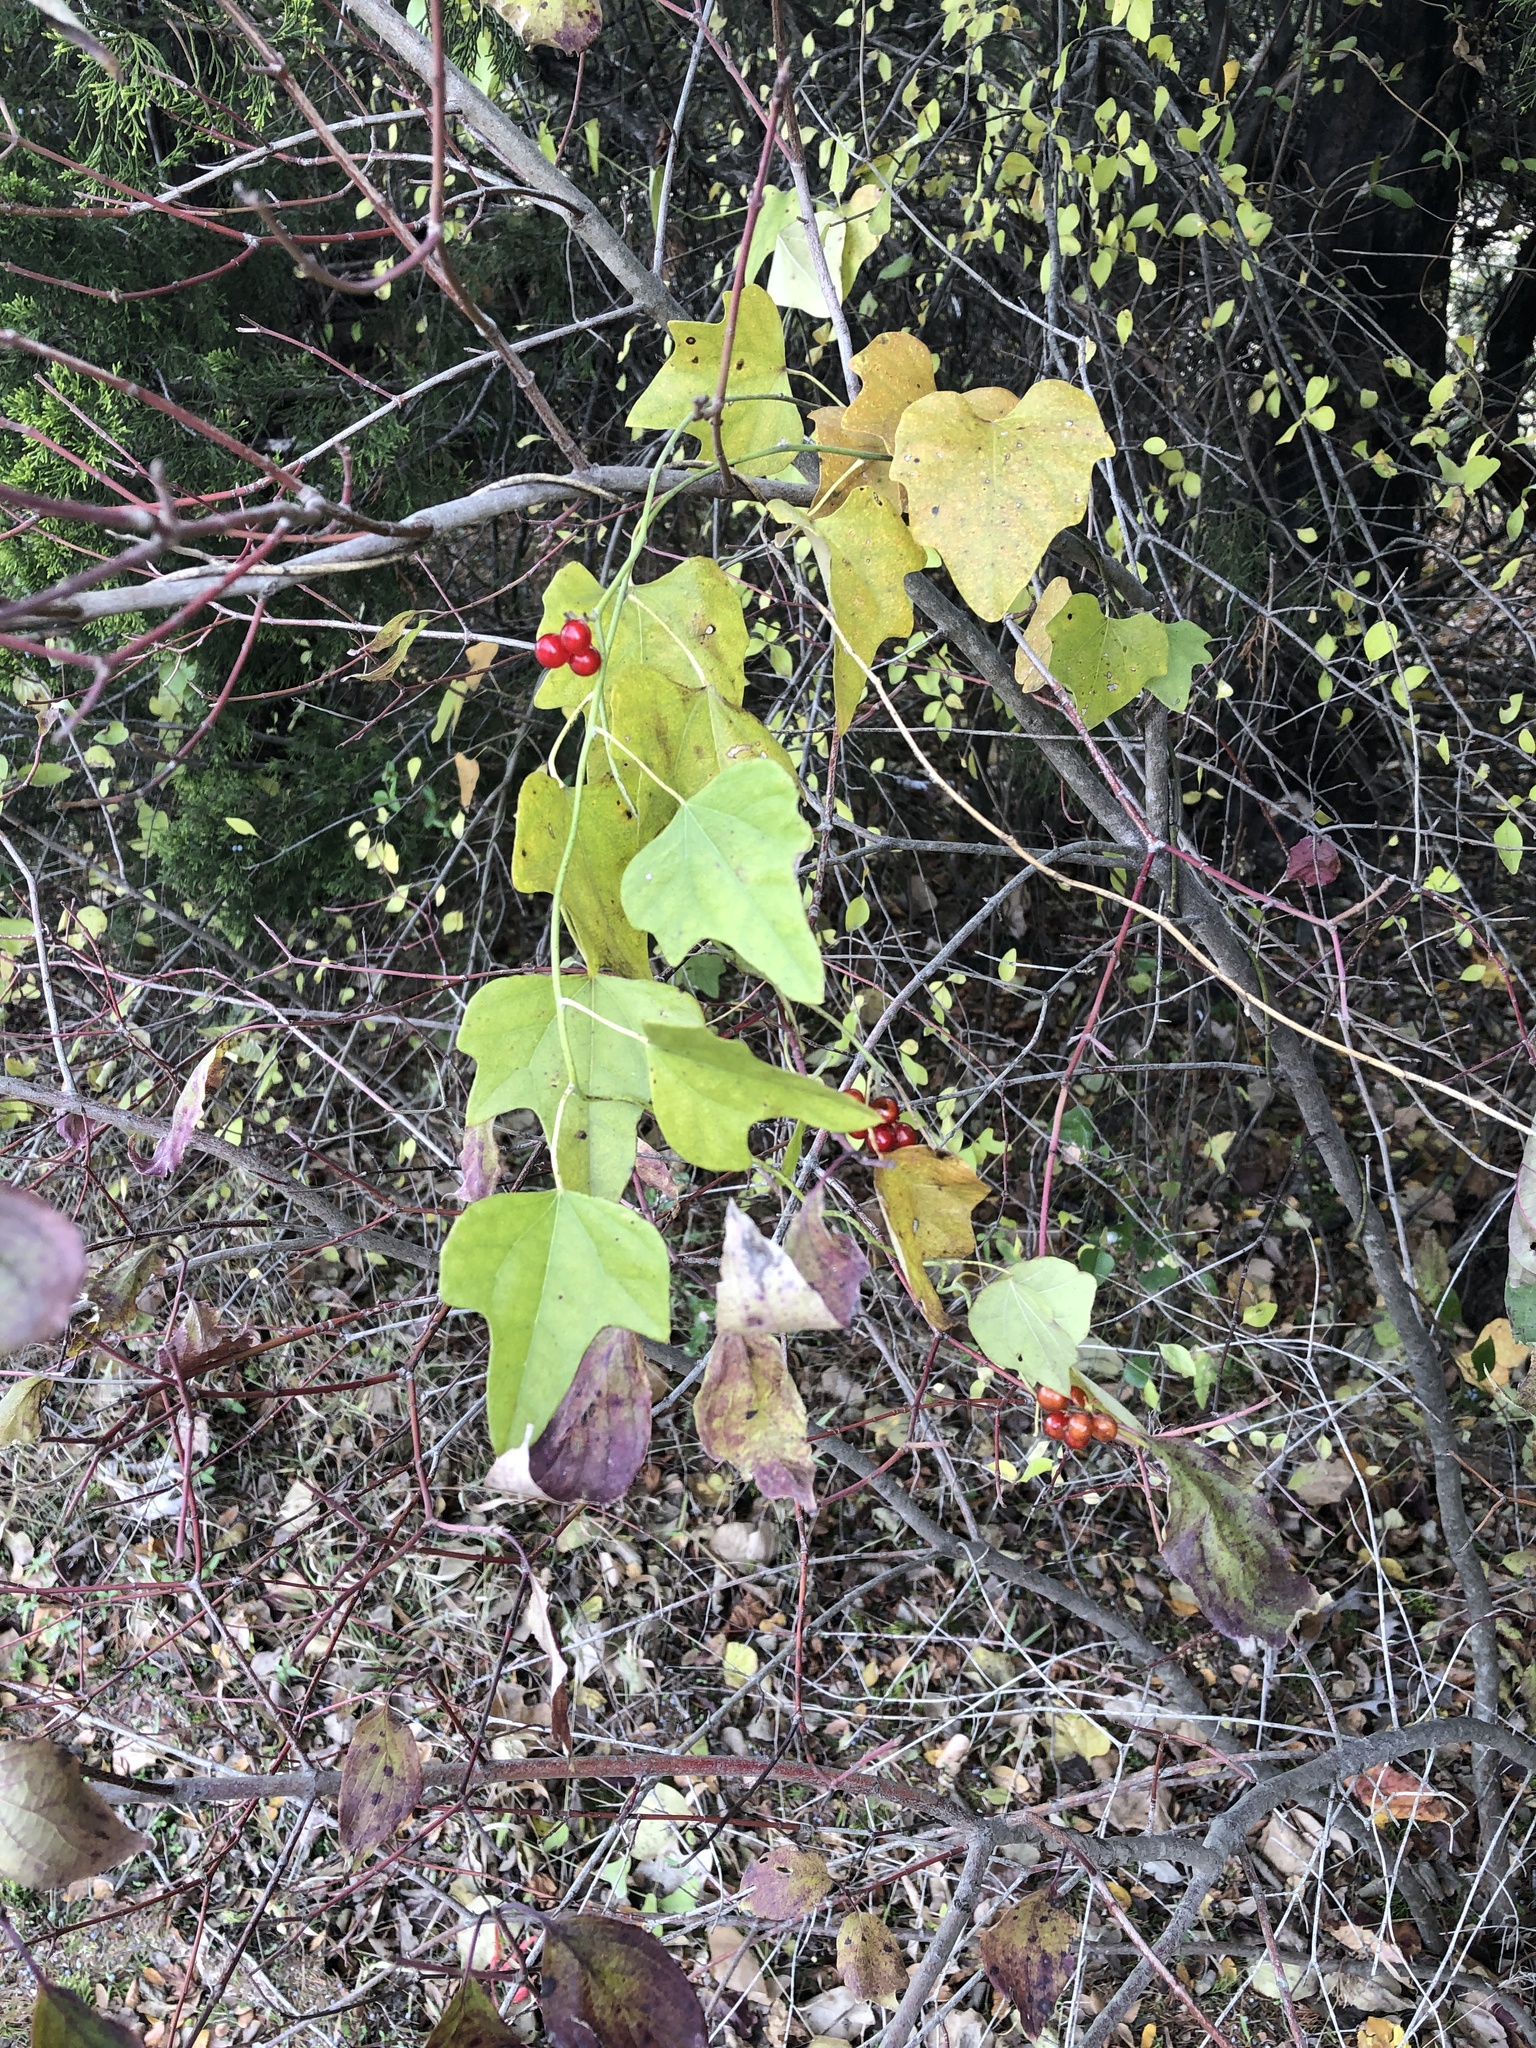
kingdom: Plantae
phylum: Tracheophyta
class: Magnoliopsida
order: Ranunculales
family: Menispermaceae
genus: Cocculus
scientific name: Cocculus carolinus
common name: Carolina moonseed
